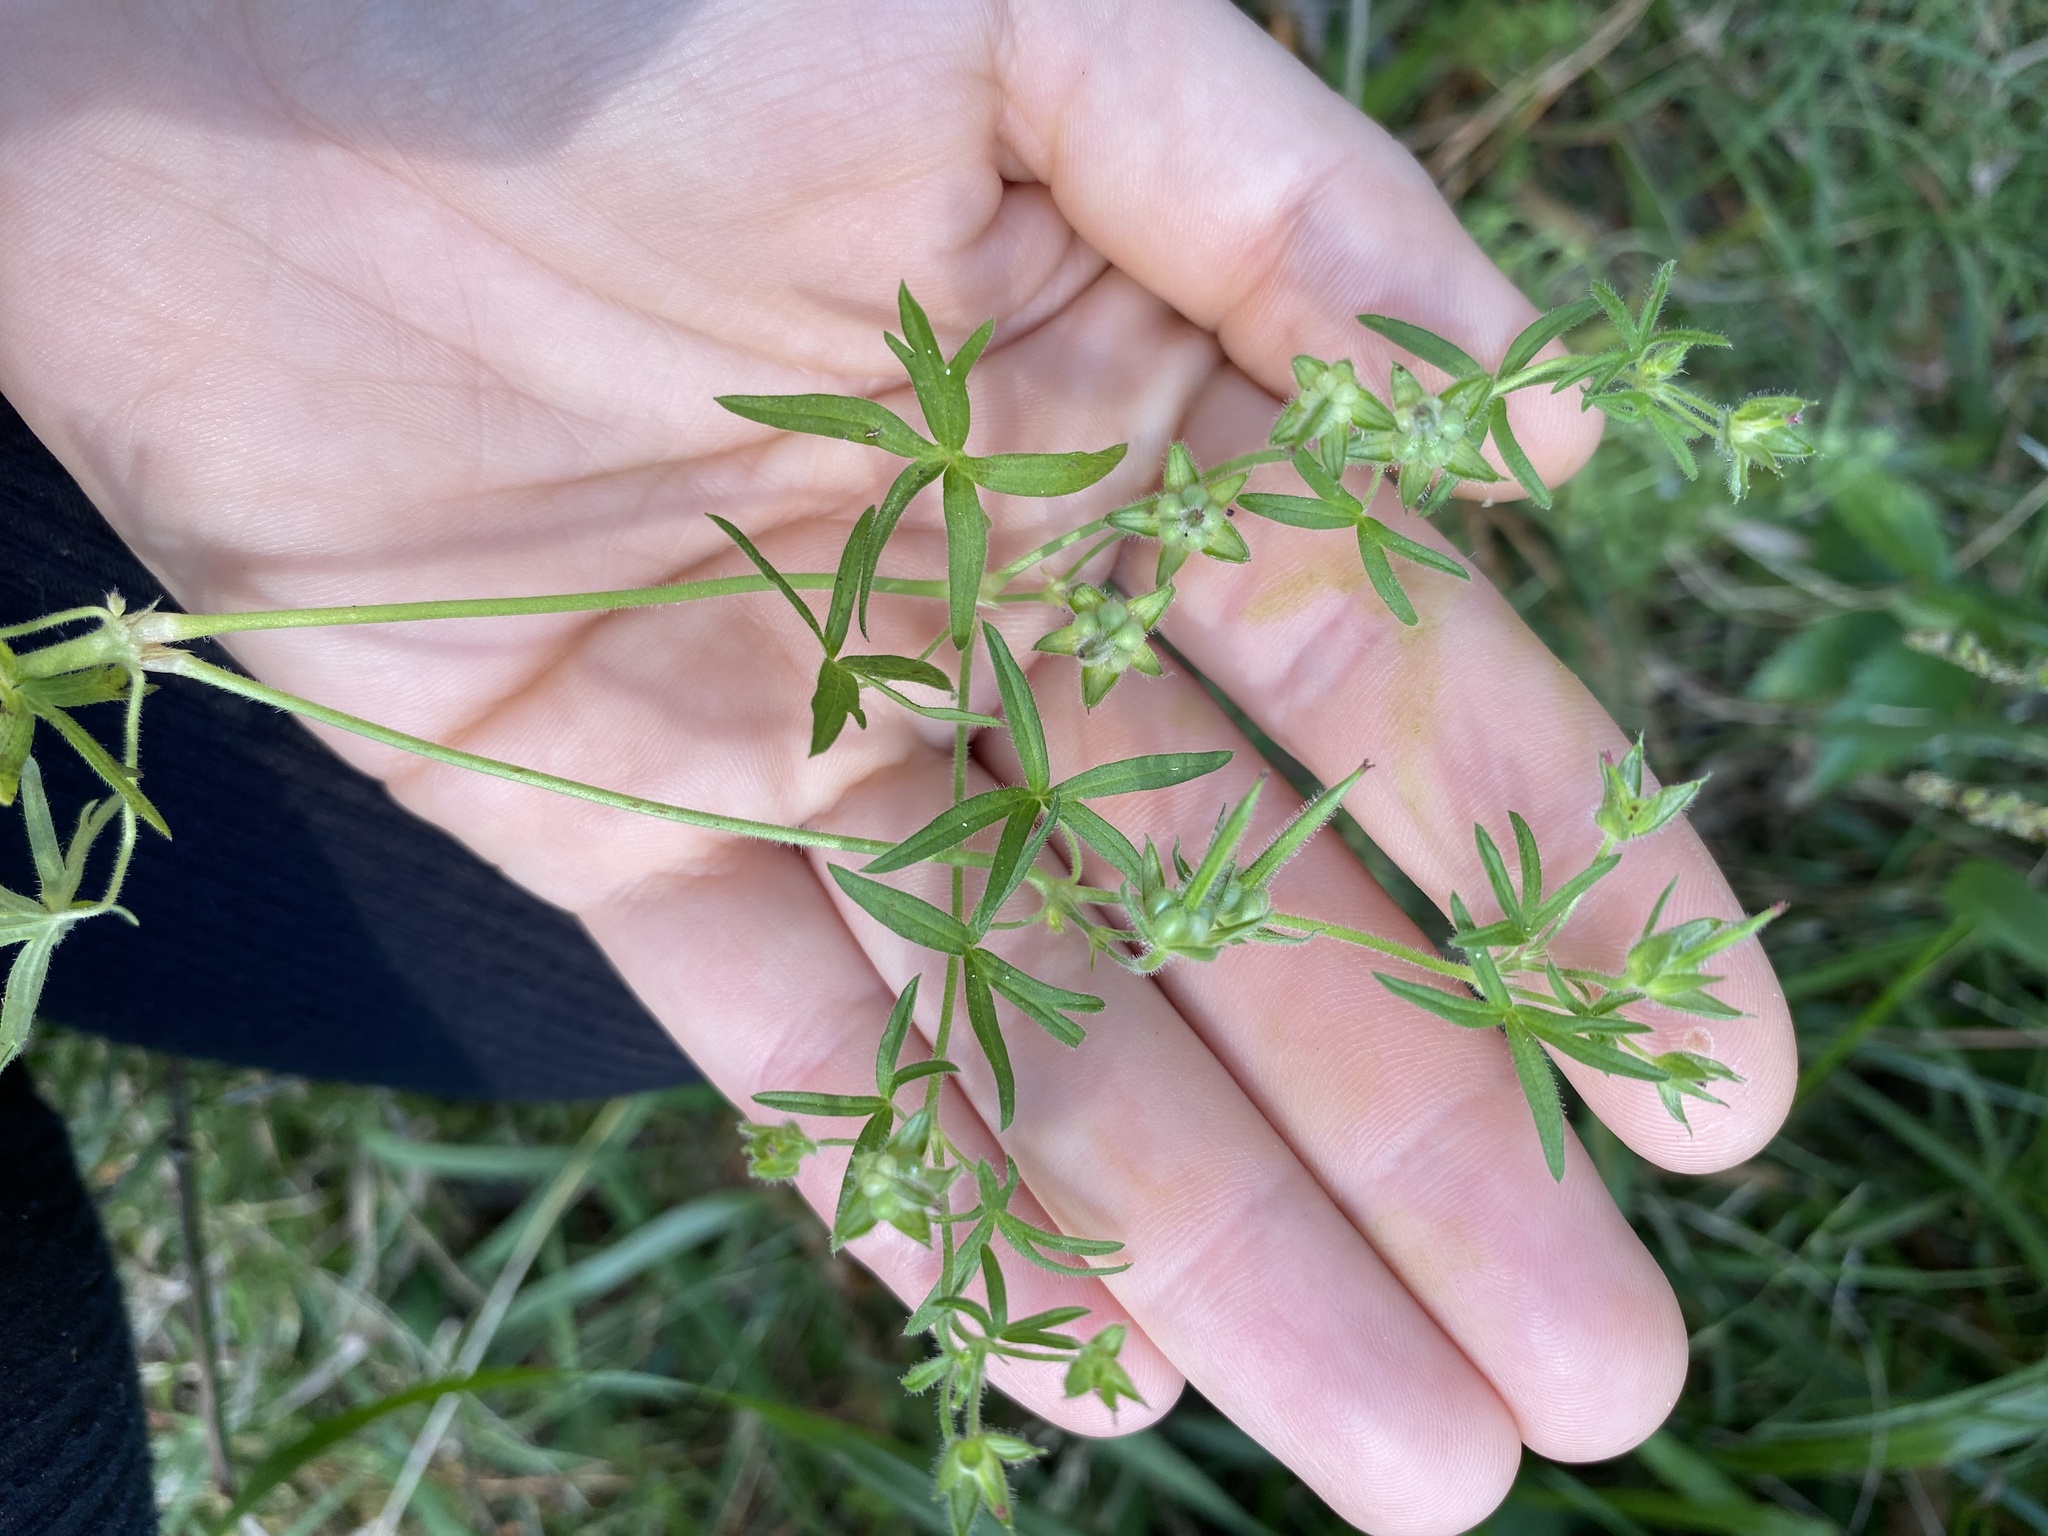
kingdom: Plantae
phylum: Tracheophyta
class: Magnoliopsida
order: Geraniales
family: Geraniaceae
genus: Geranium
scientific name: Geranium dissectum
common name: Cut-leaved crane's-bill
